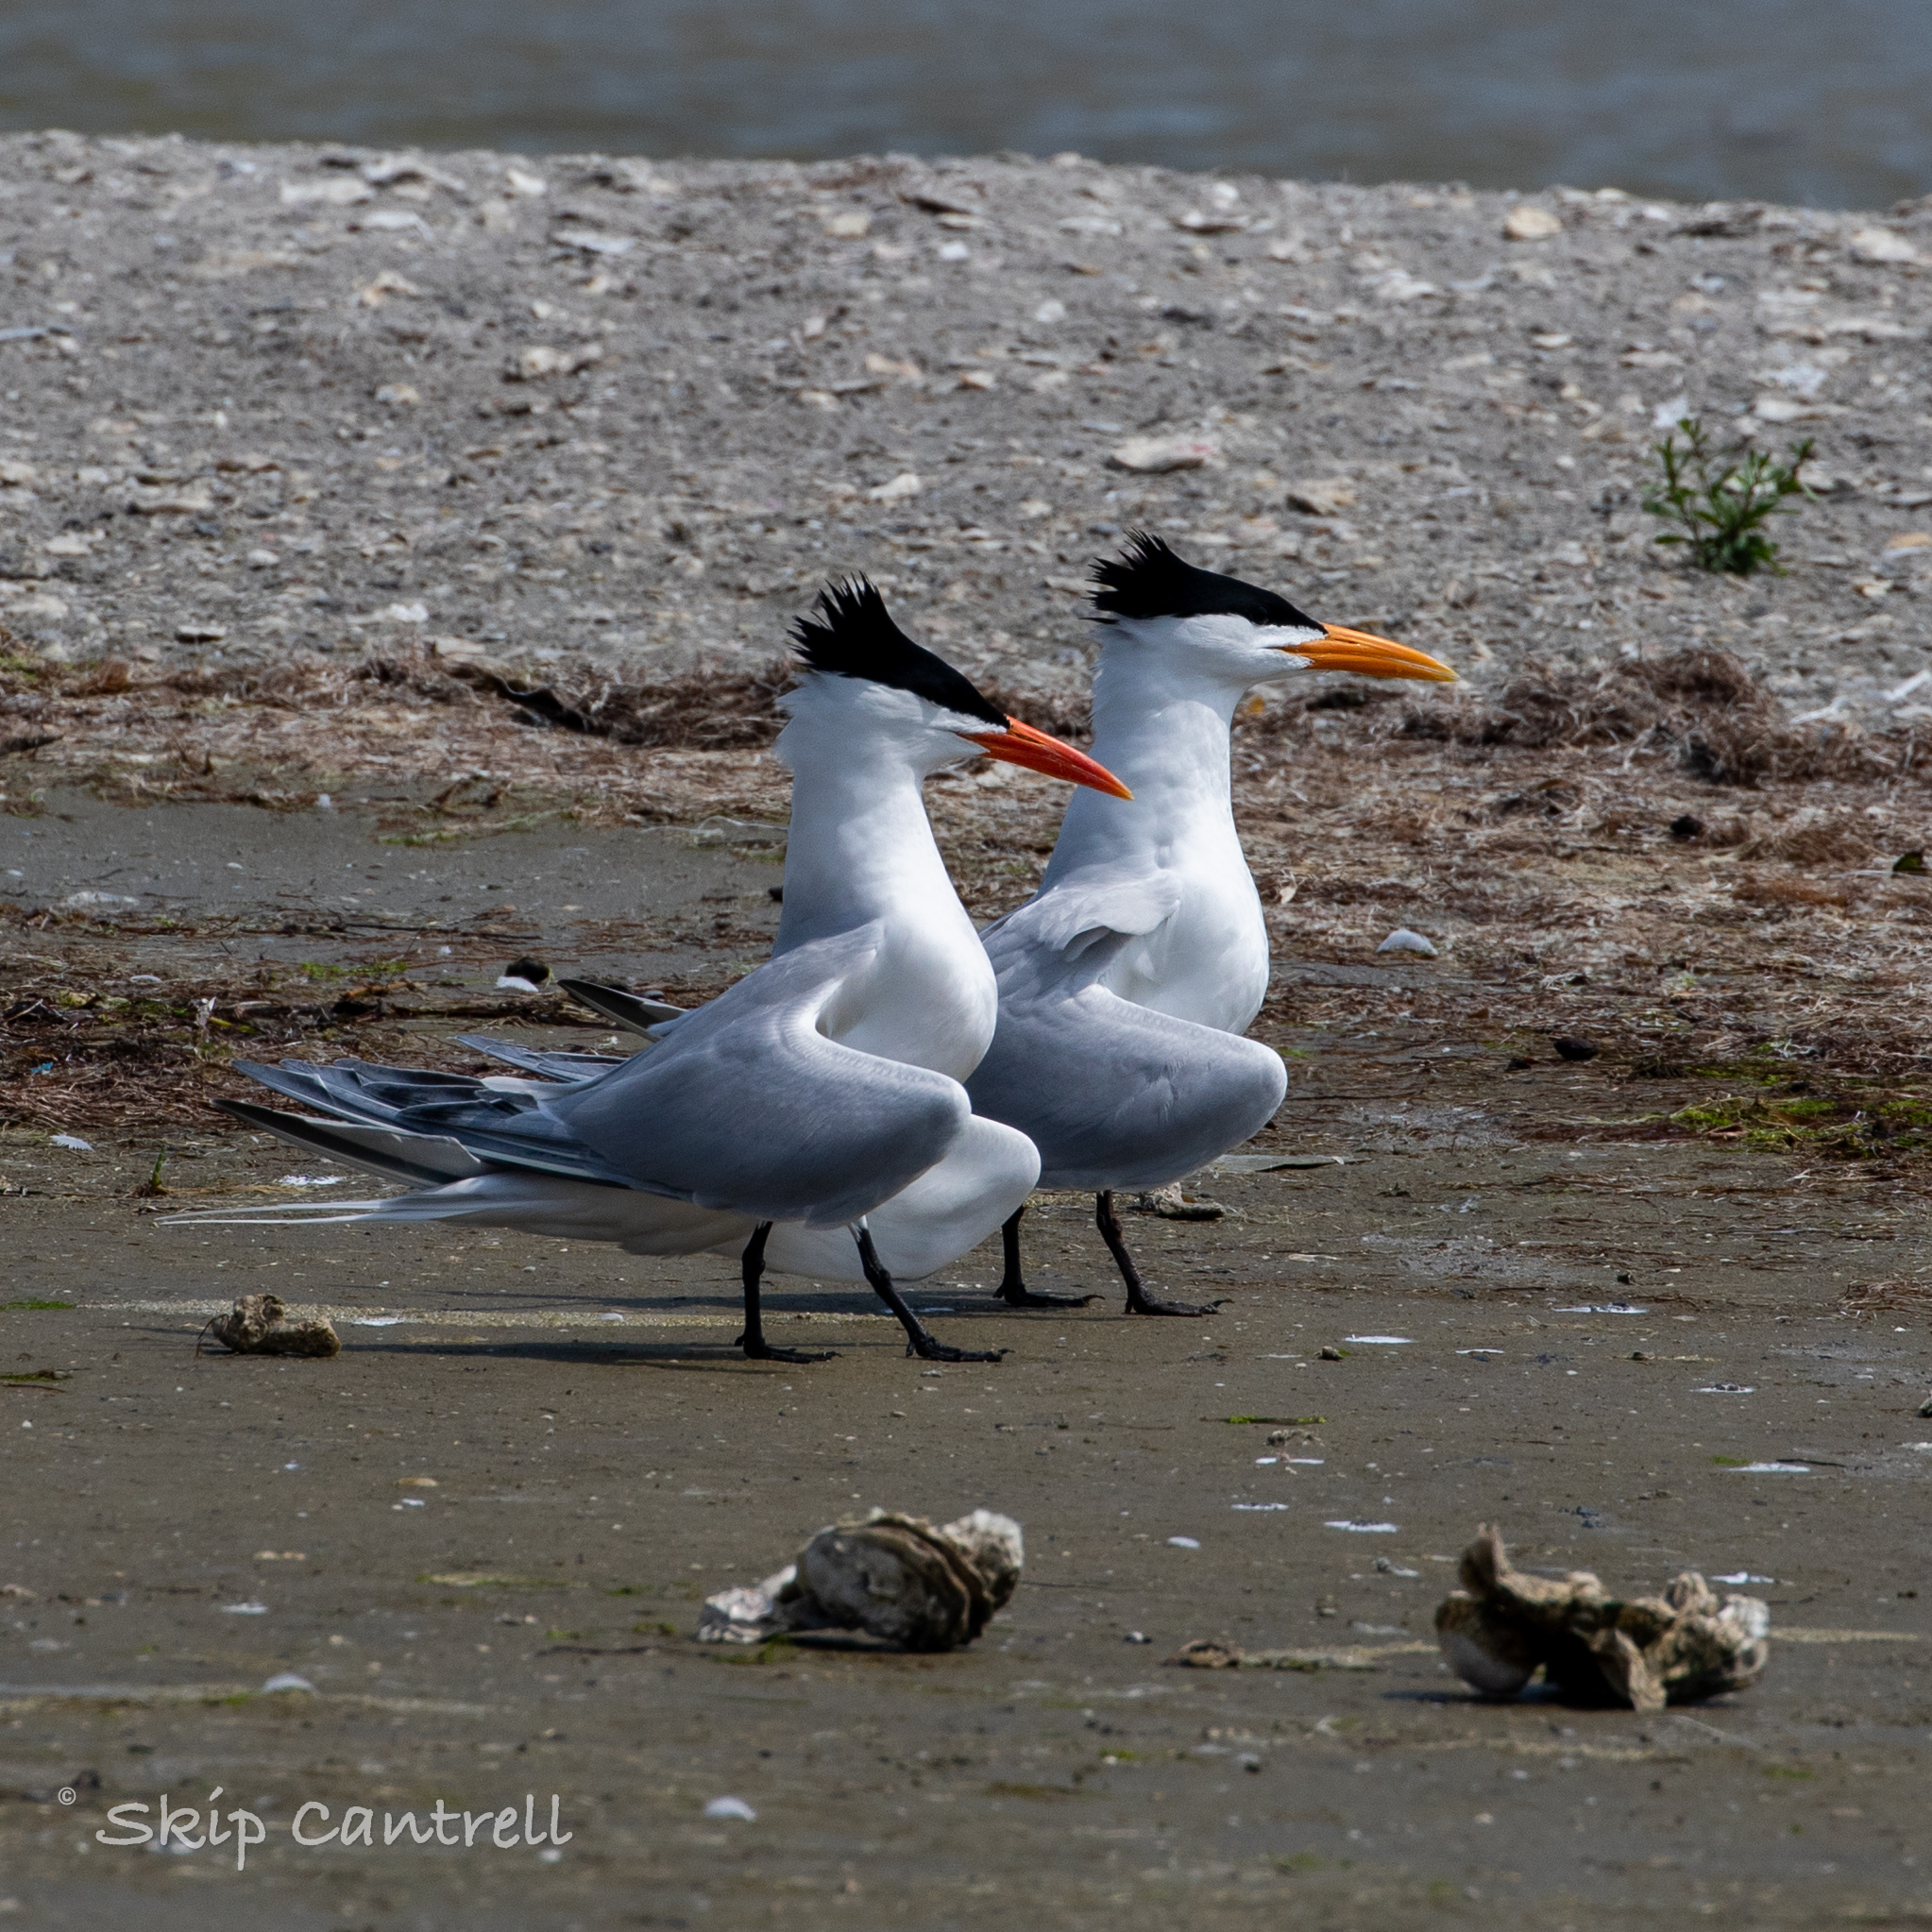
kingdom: Animalia
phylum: Chordata
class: Aves
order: Charadriiformes
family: Laridae
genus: Thalasseus
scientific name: Thalasseus maximus
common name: Royal tern
